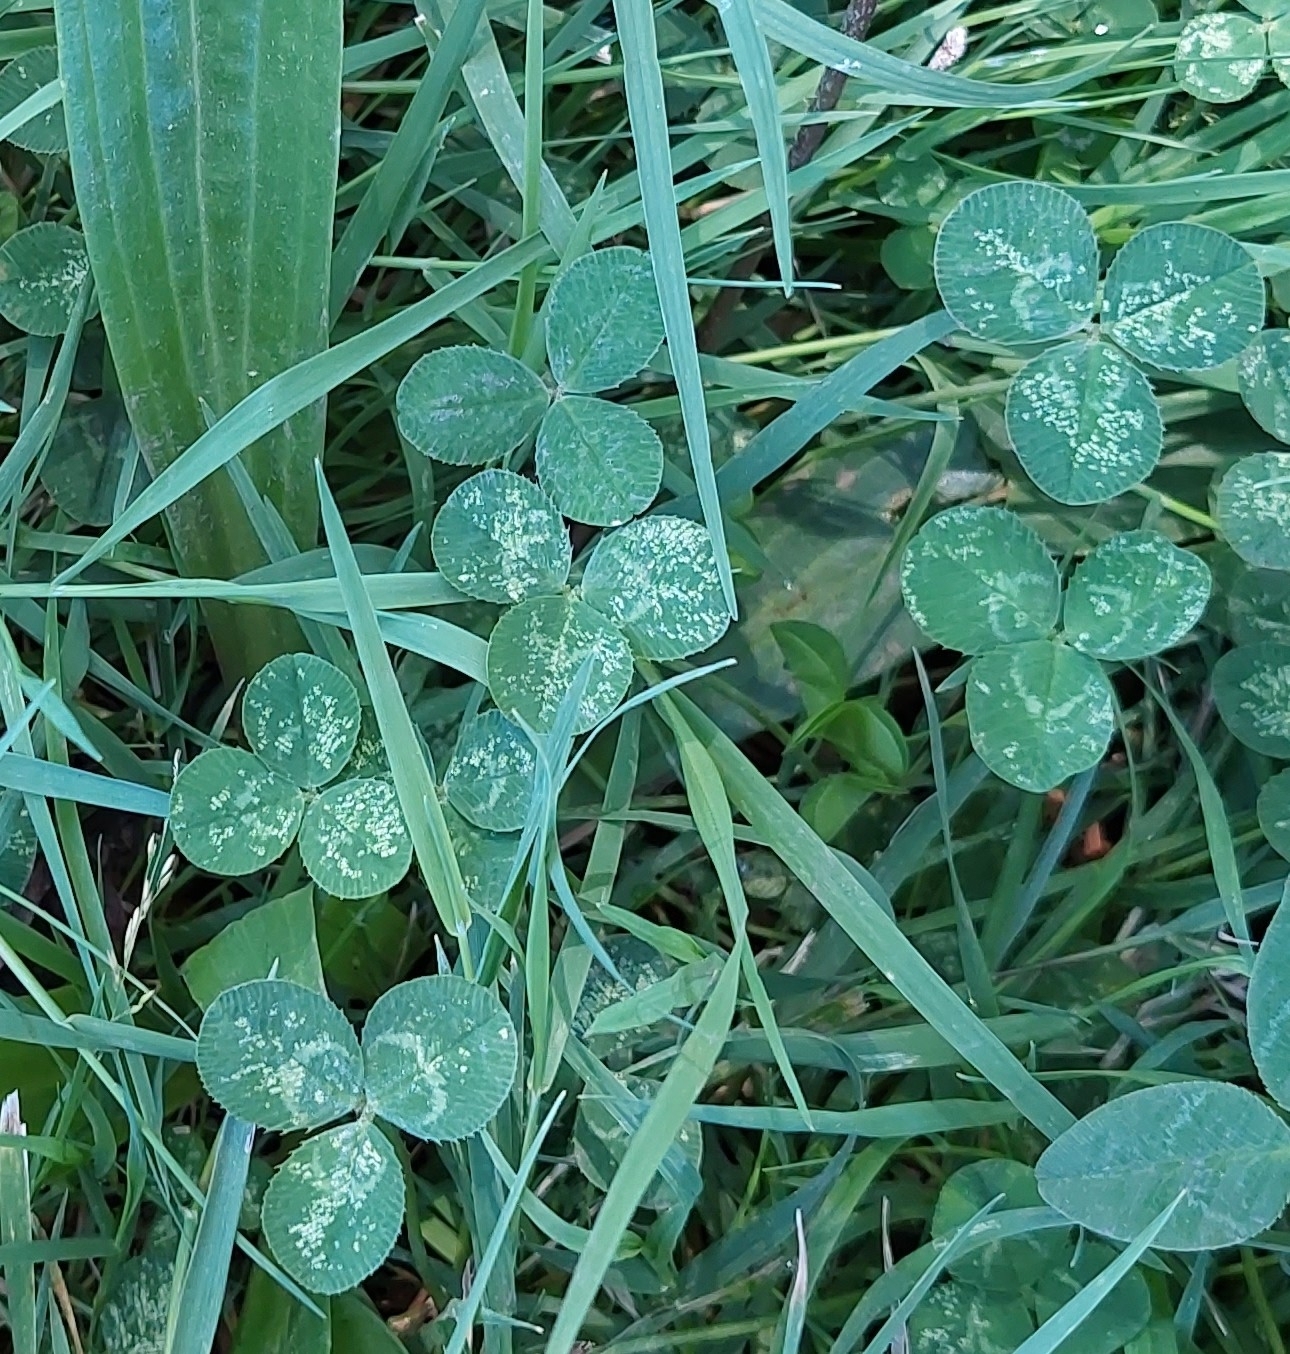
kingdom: Plantae
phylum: Tracheophyta
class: Magnoliopsida
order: Fabales
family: Fabaceae
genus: Trifolium
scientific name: Trifolium repens
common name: White clover
